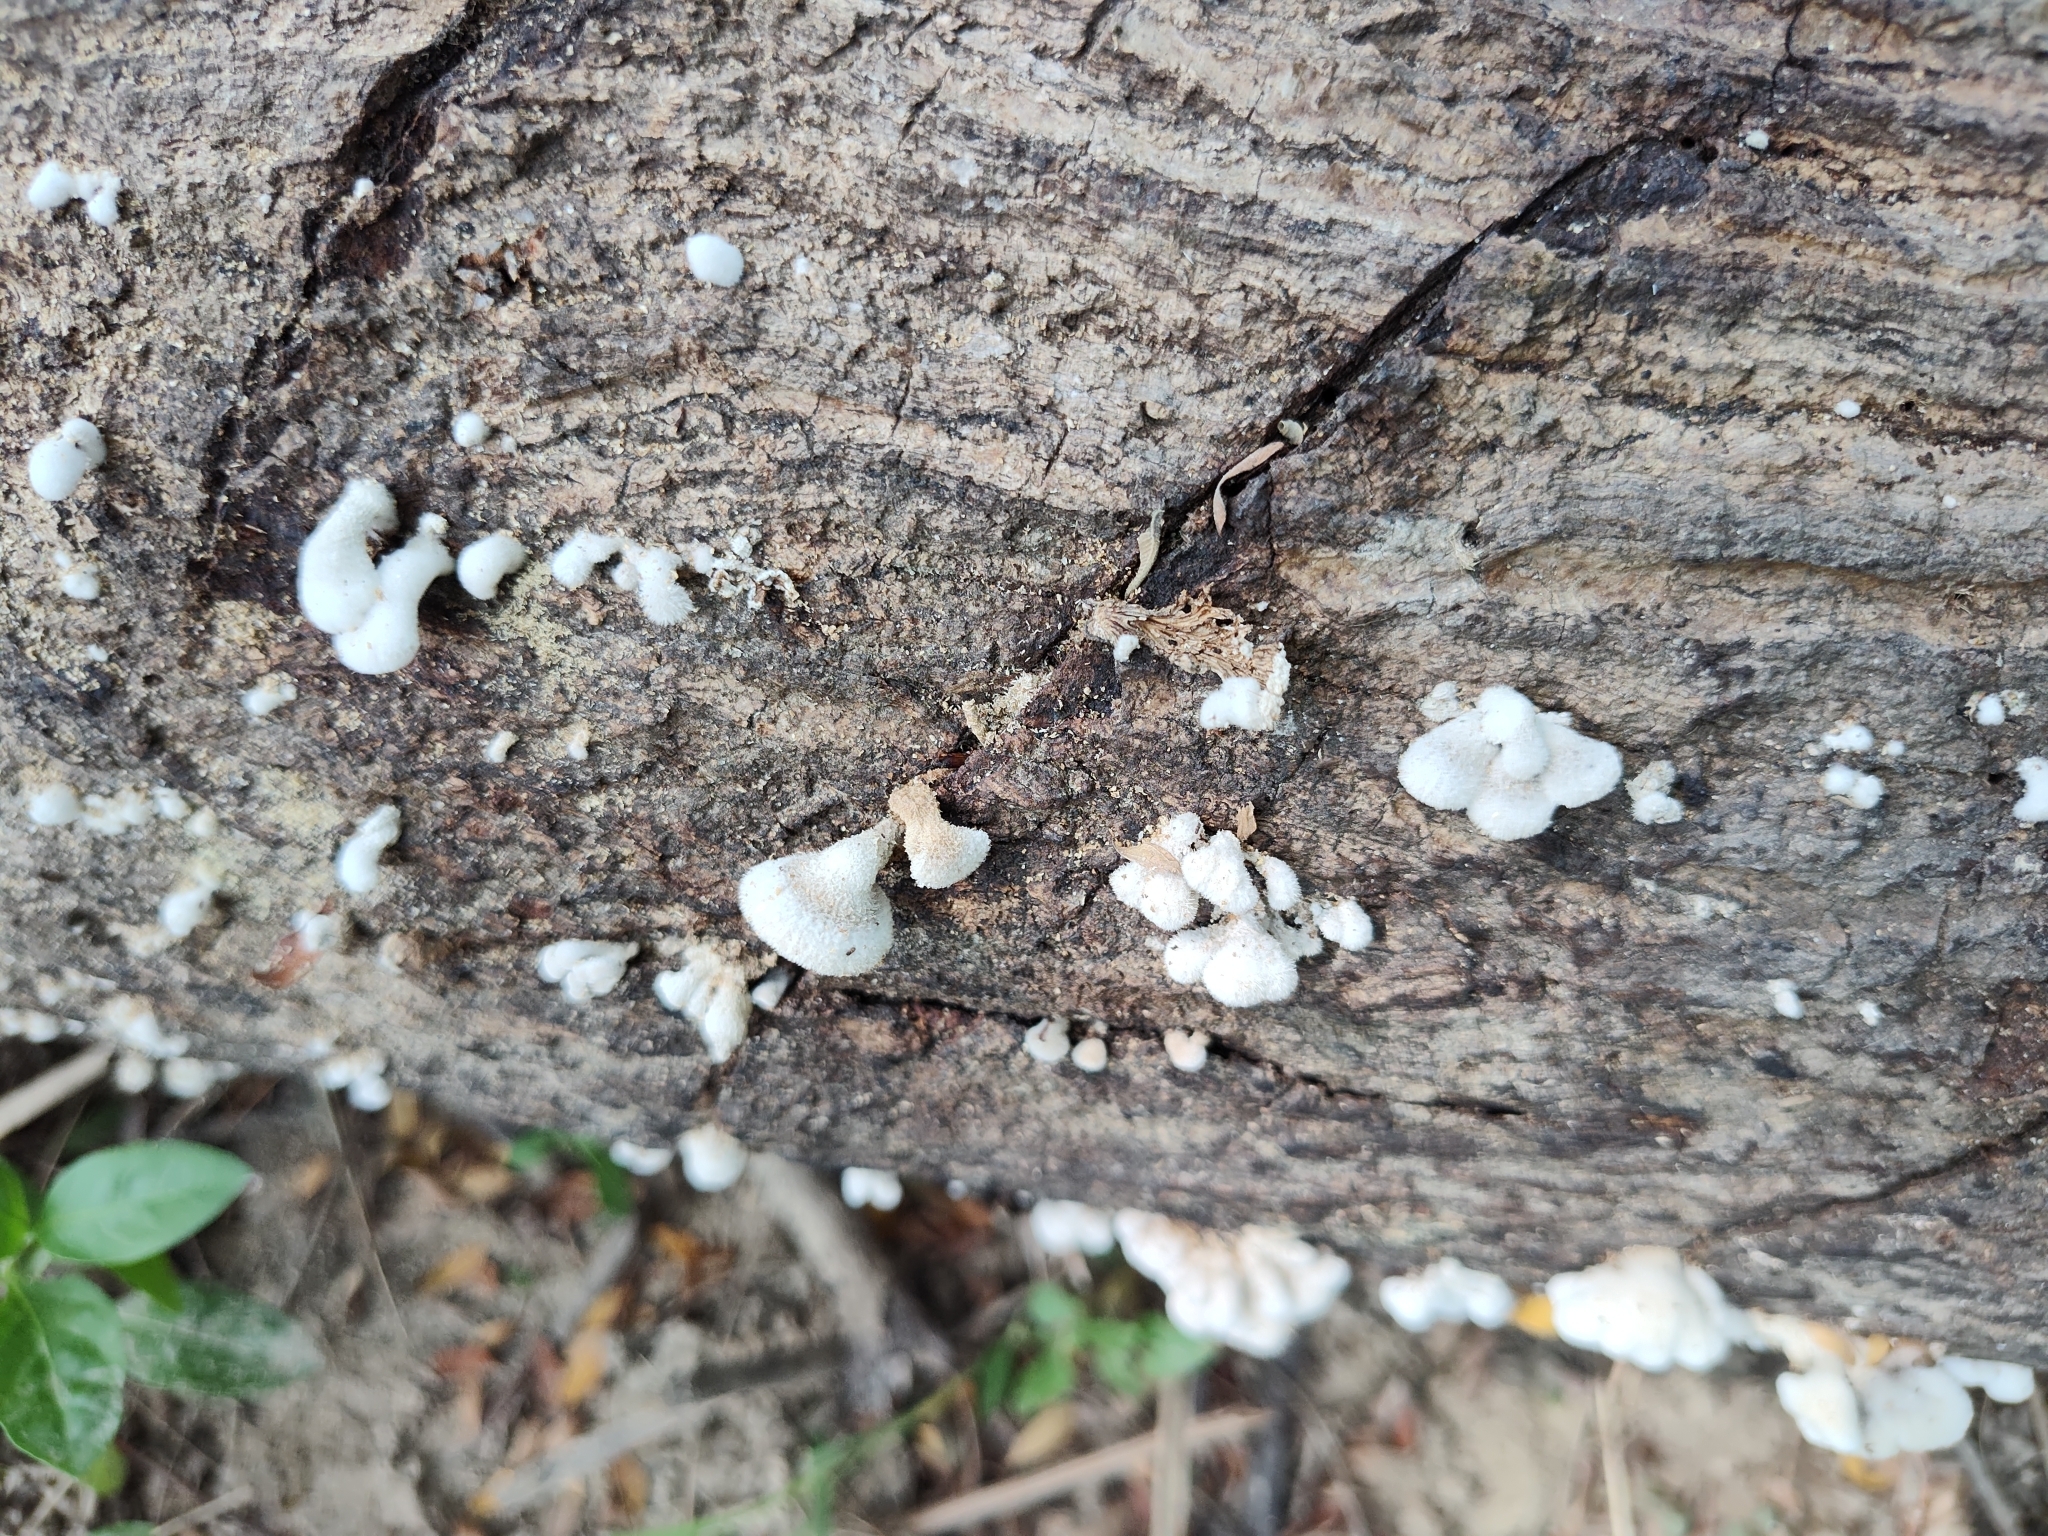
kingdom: Fungi
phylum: Basidiomycota
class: Agaricomycetes
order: Agaricales
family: Schizophyllaceae
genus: Schizophyllum
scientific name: Schizophyllum commune
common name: Common porecrust
